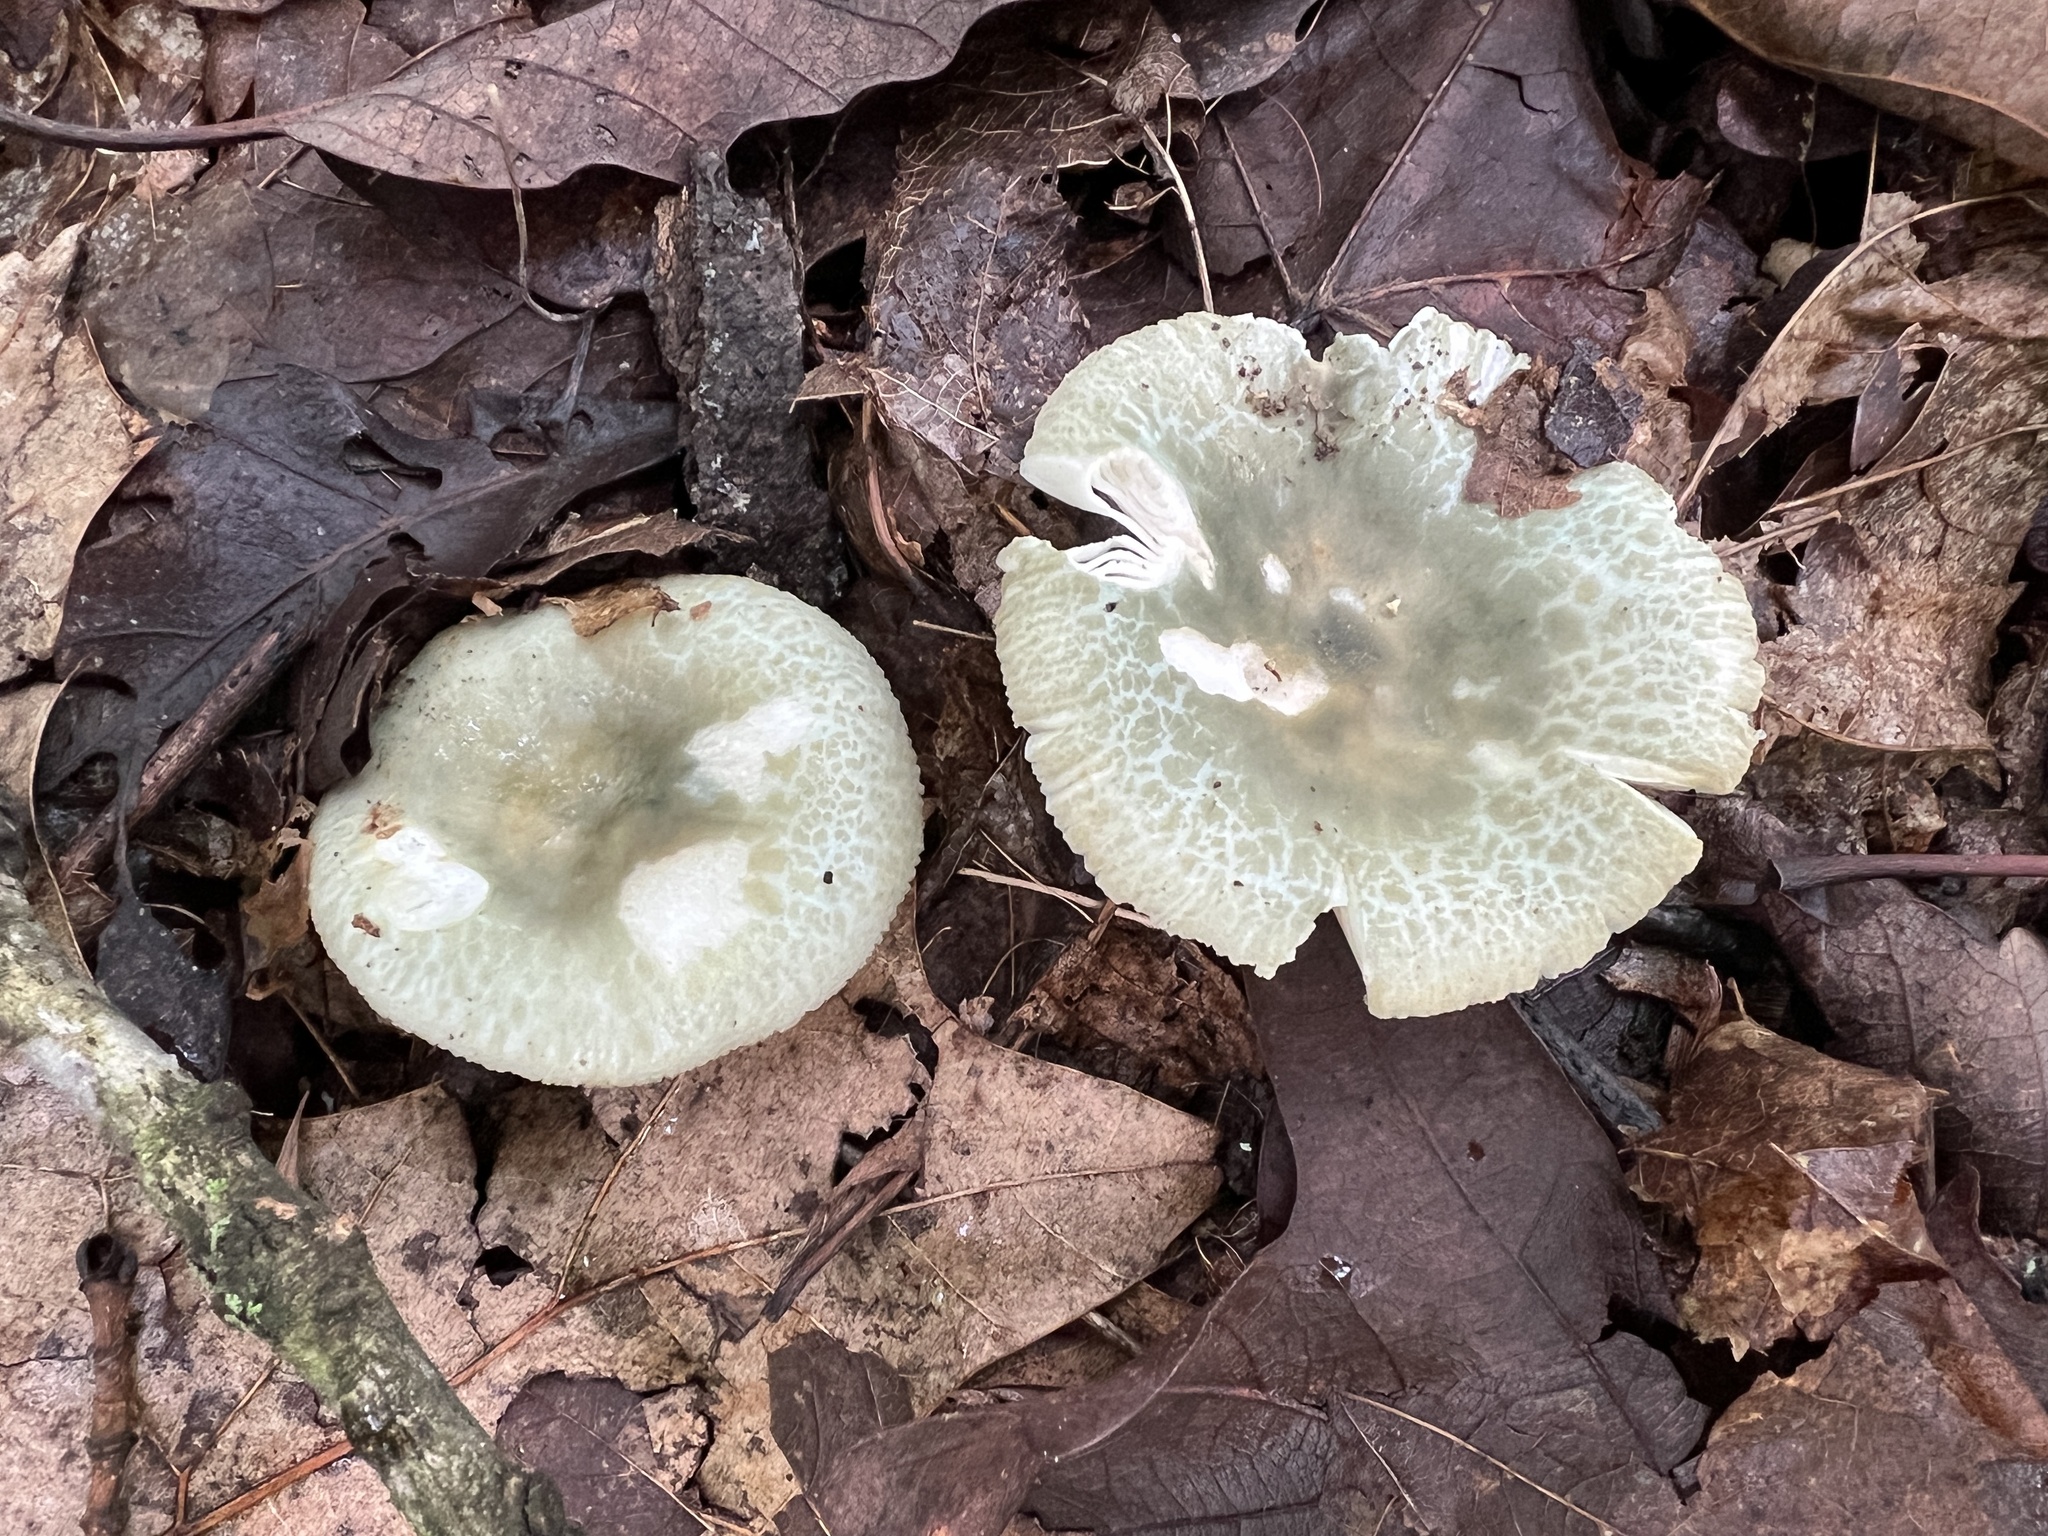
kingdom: Fungi
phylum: Basidiomycota
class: Agaricomycetes
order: Russulales
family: Russulaceae
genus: Russula
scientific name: Russula parvovirescens
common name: Blue-green cracking russula
